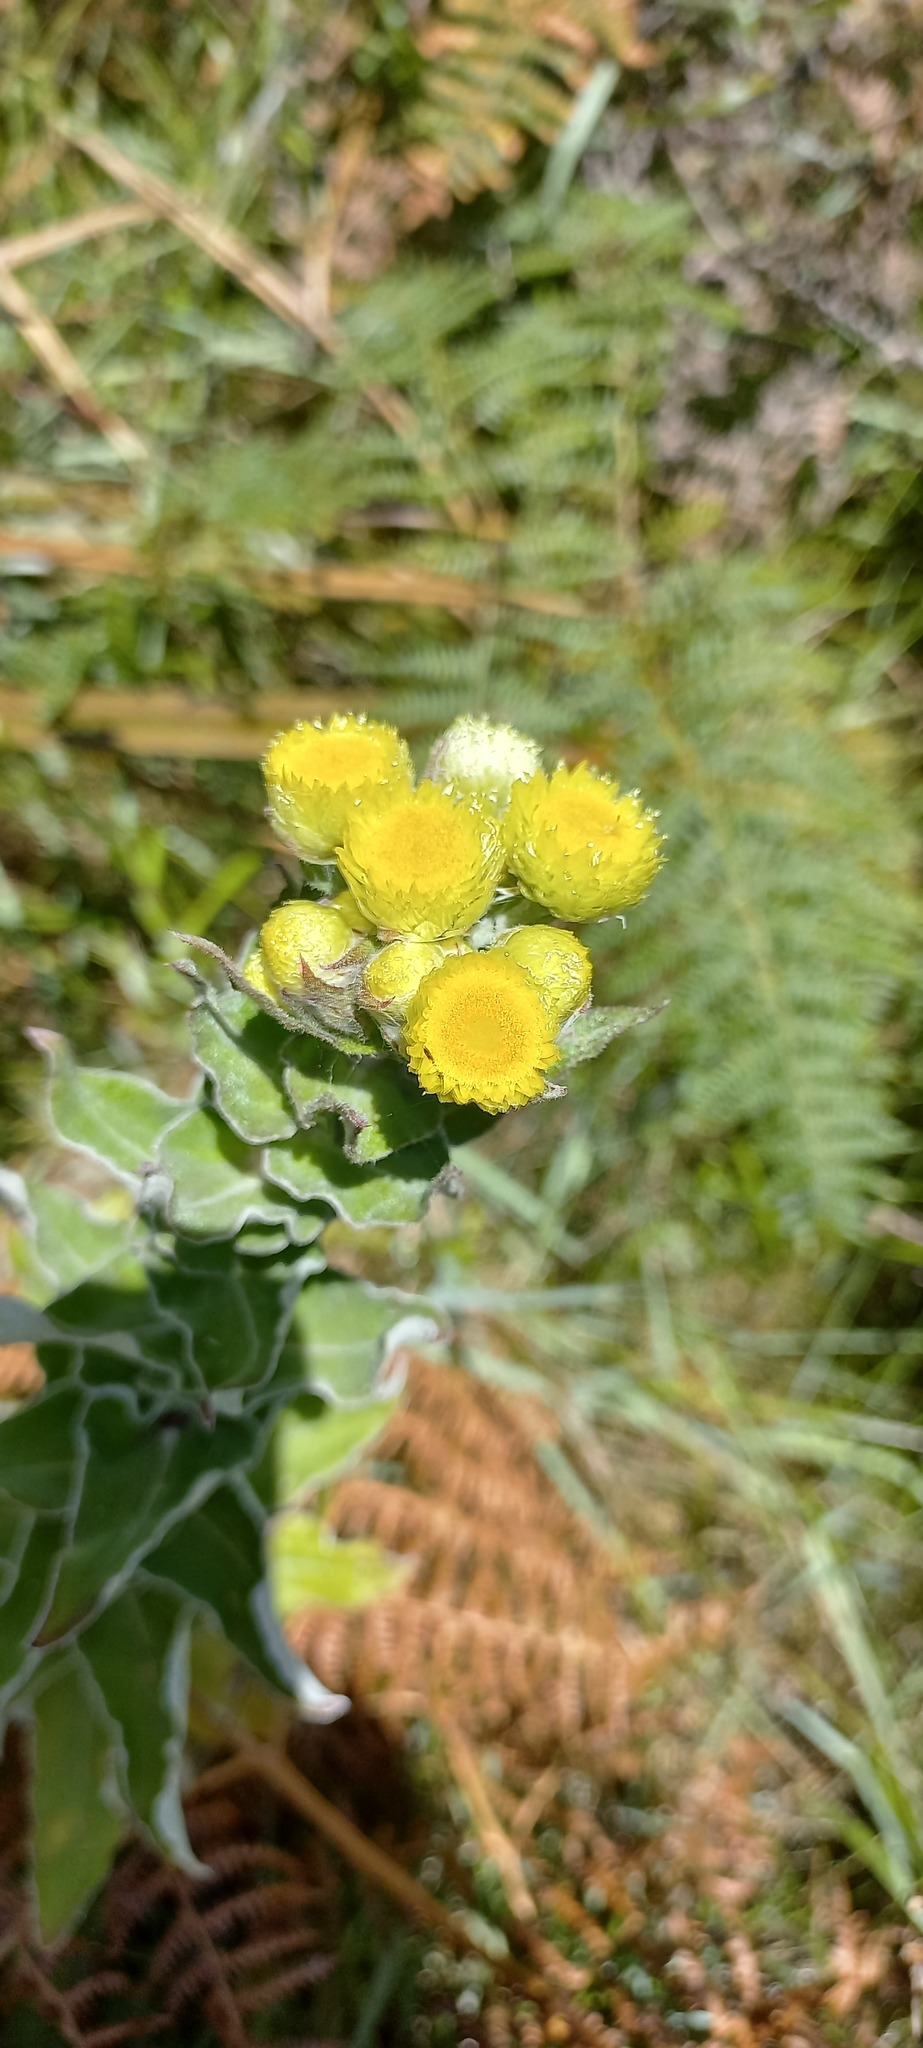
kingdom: Plantae
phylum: Tracheophyta
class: Magnoliopsida
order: Asterales
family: Asteraceae
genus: Helichrysum
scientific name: Helichrysum foetidum
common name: Stinking everlasting
